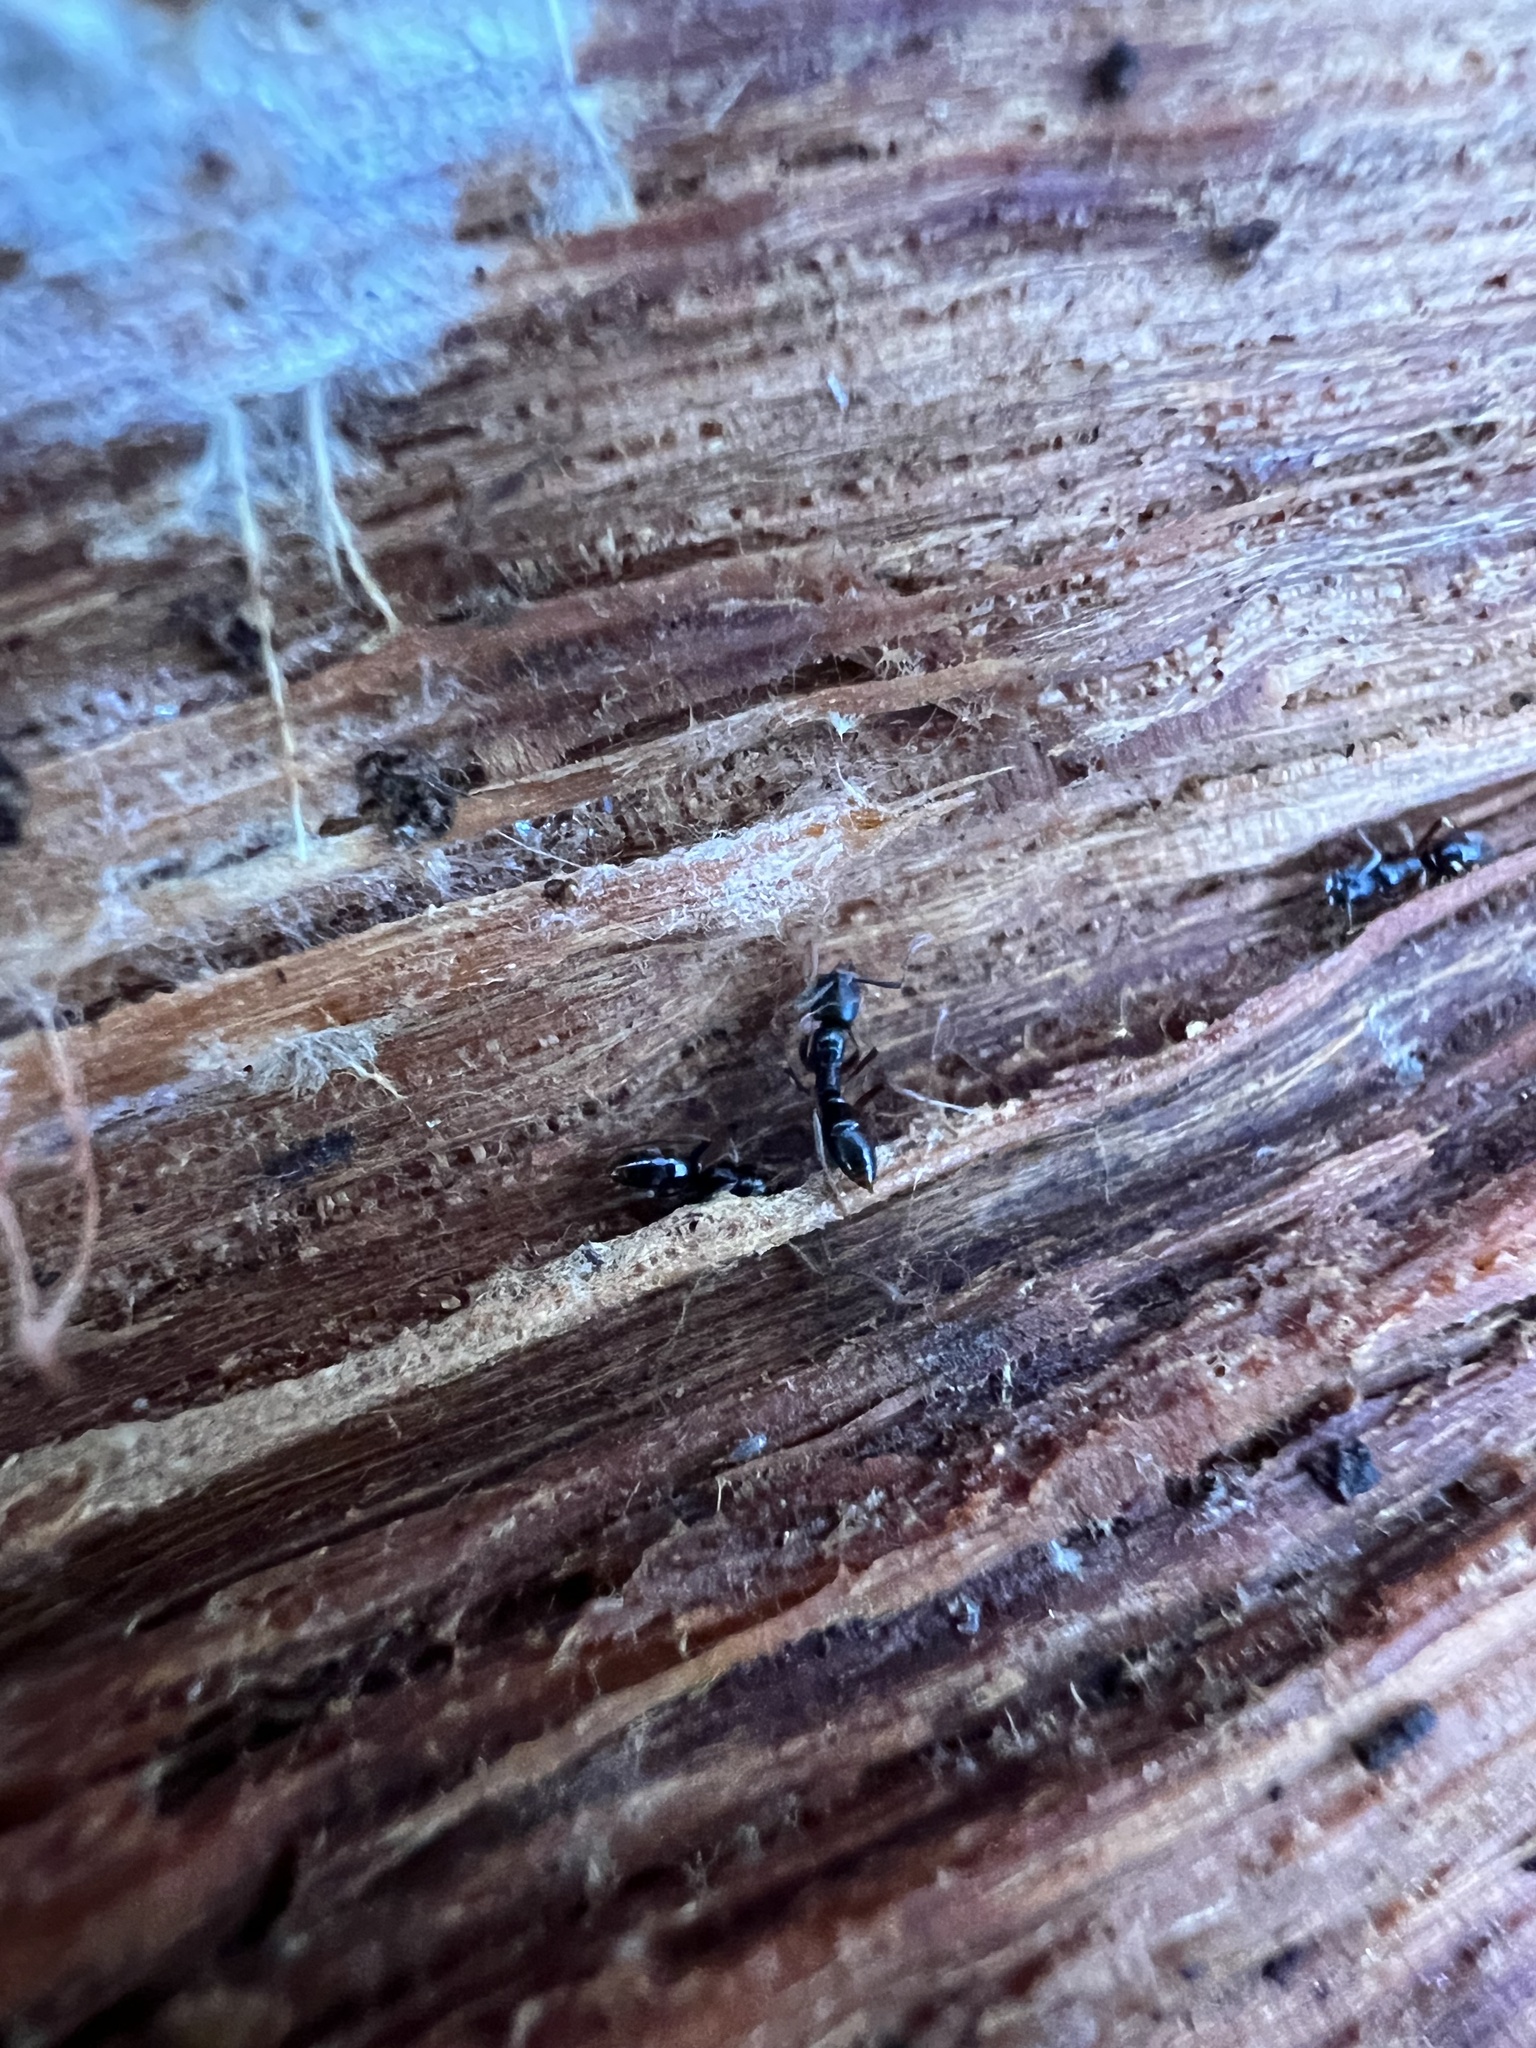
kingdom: Animalia
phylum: Arthropoda
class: Insecta
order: Hymenoptera
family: Formicidae
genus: Pachycondyla
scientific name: Pachycondyla chinensis
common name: Asian needle ant
